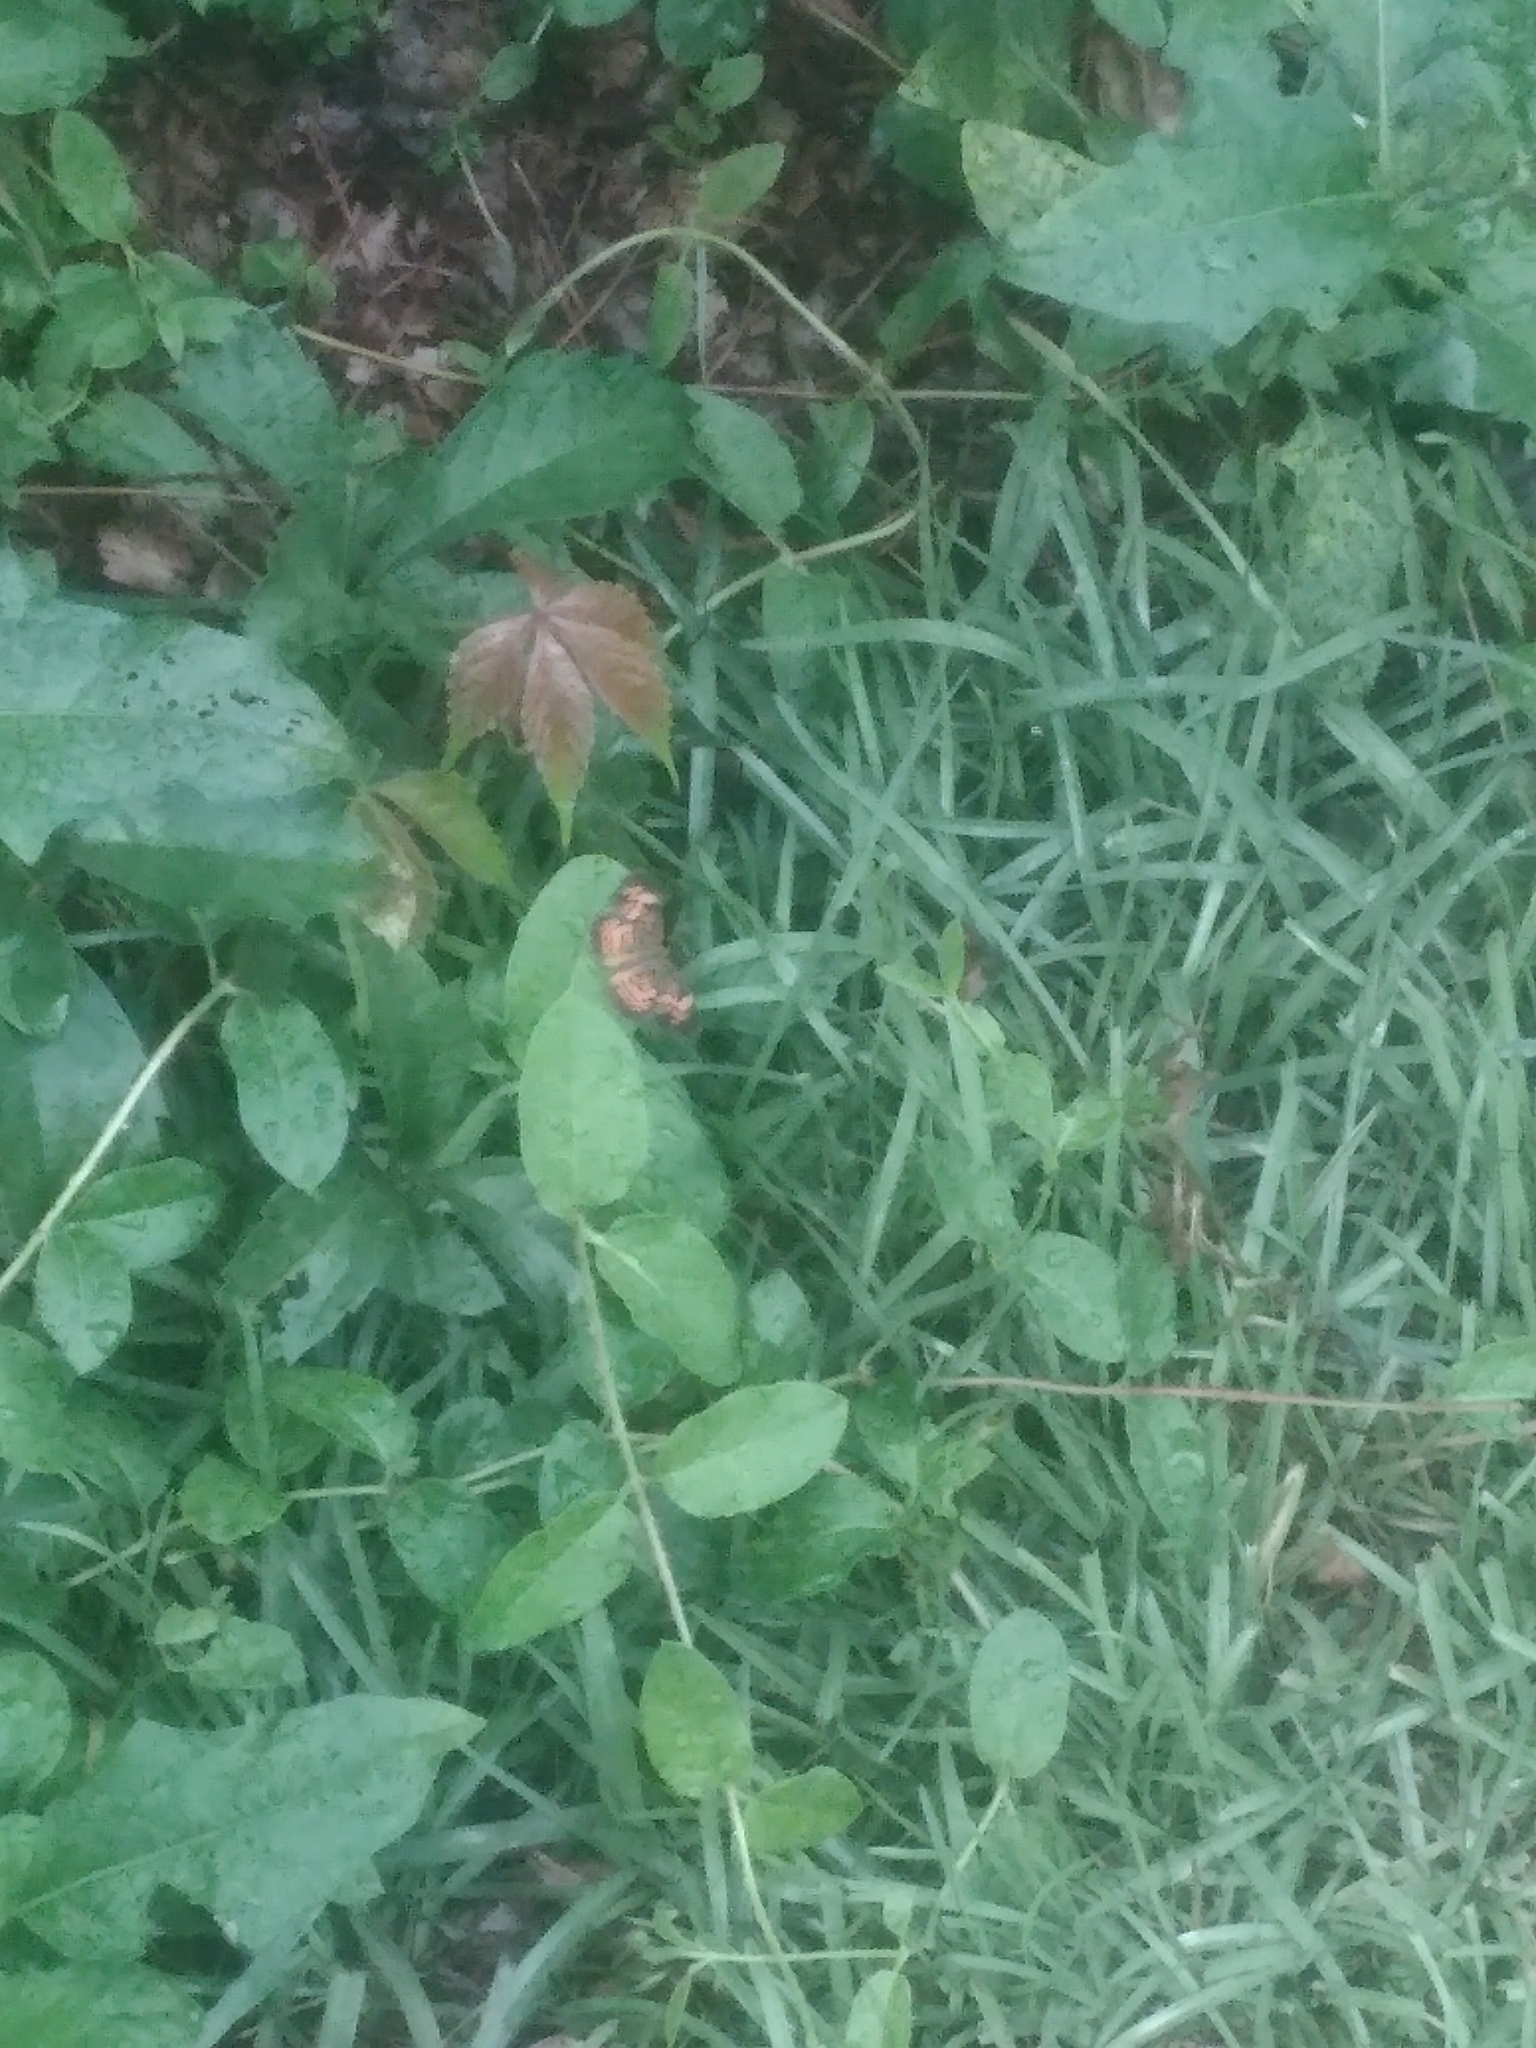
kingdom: Animalia
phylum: Arthropoda
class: Insecta
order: Lepidoptera
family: Nymphalidae
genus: Phyciodes
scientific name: Phyciodes tharos
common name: Pearl crescent
